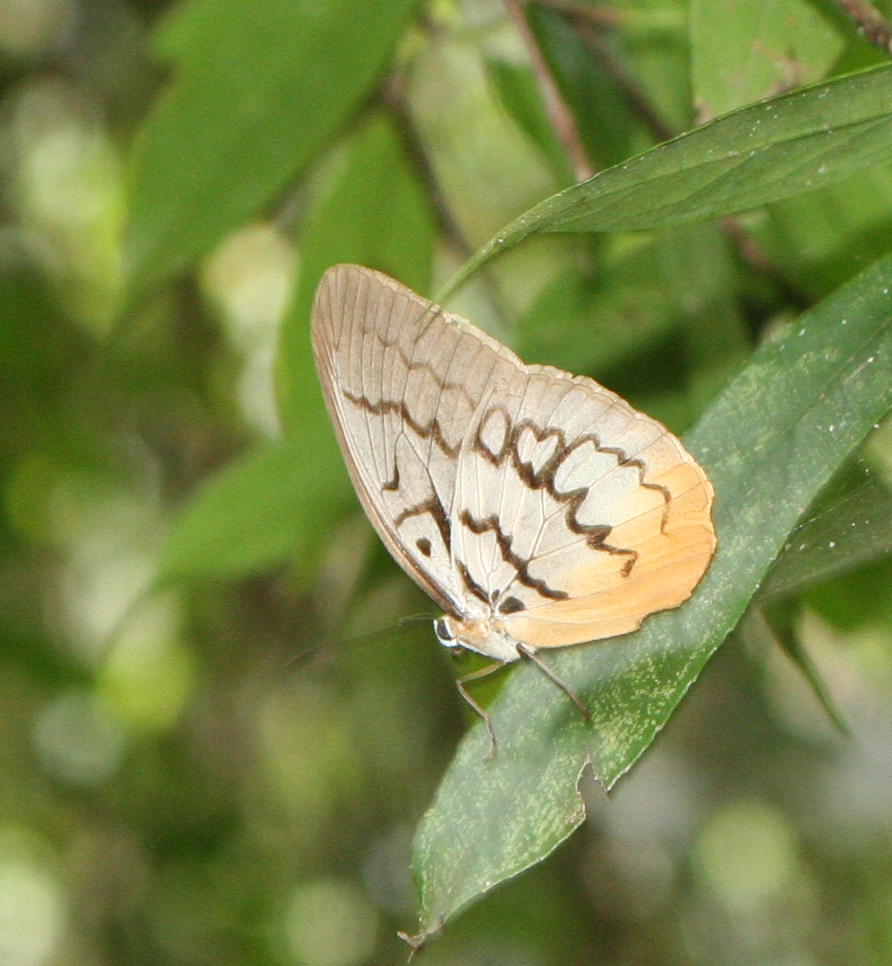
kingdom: Animalia
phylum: Arthropoda
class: Insecta
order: Lepidoptera
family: Nymphalidae
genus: Faunis
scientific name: Faunis Melanocyma faunula
